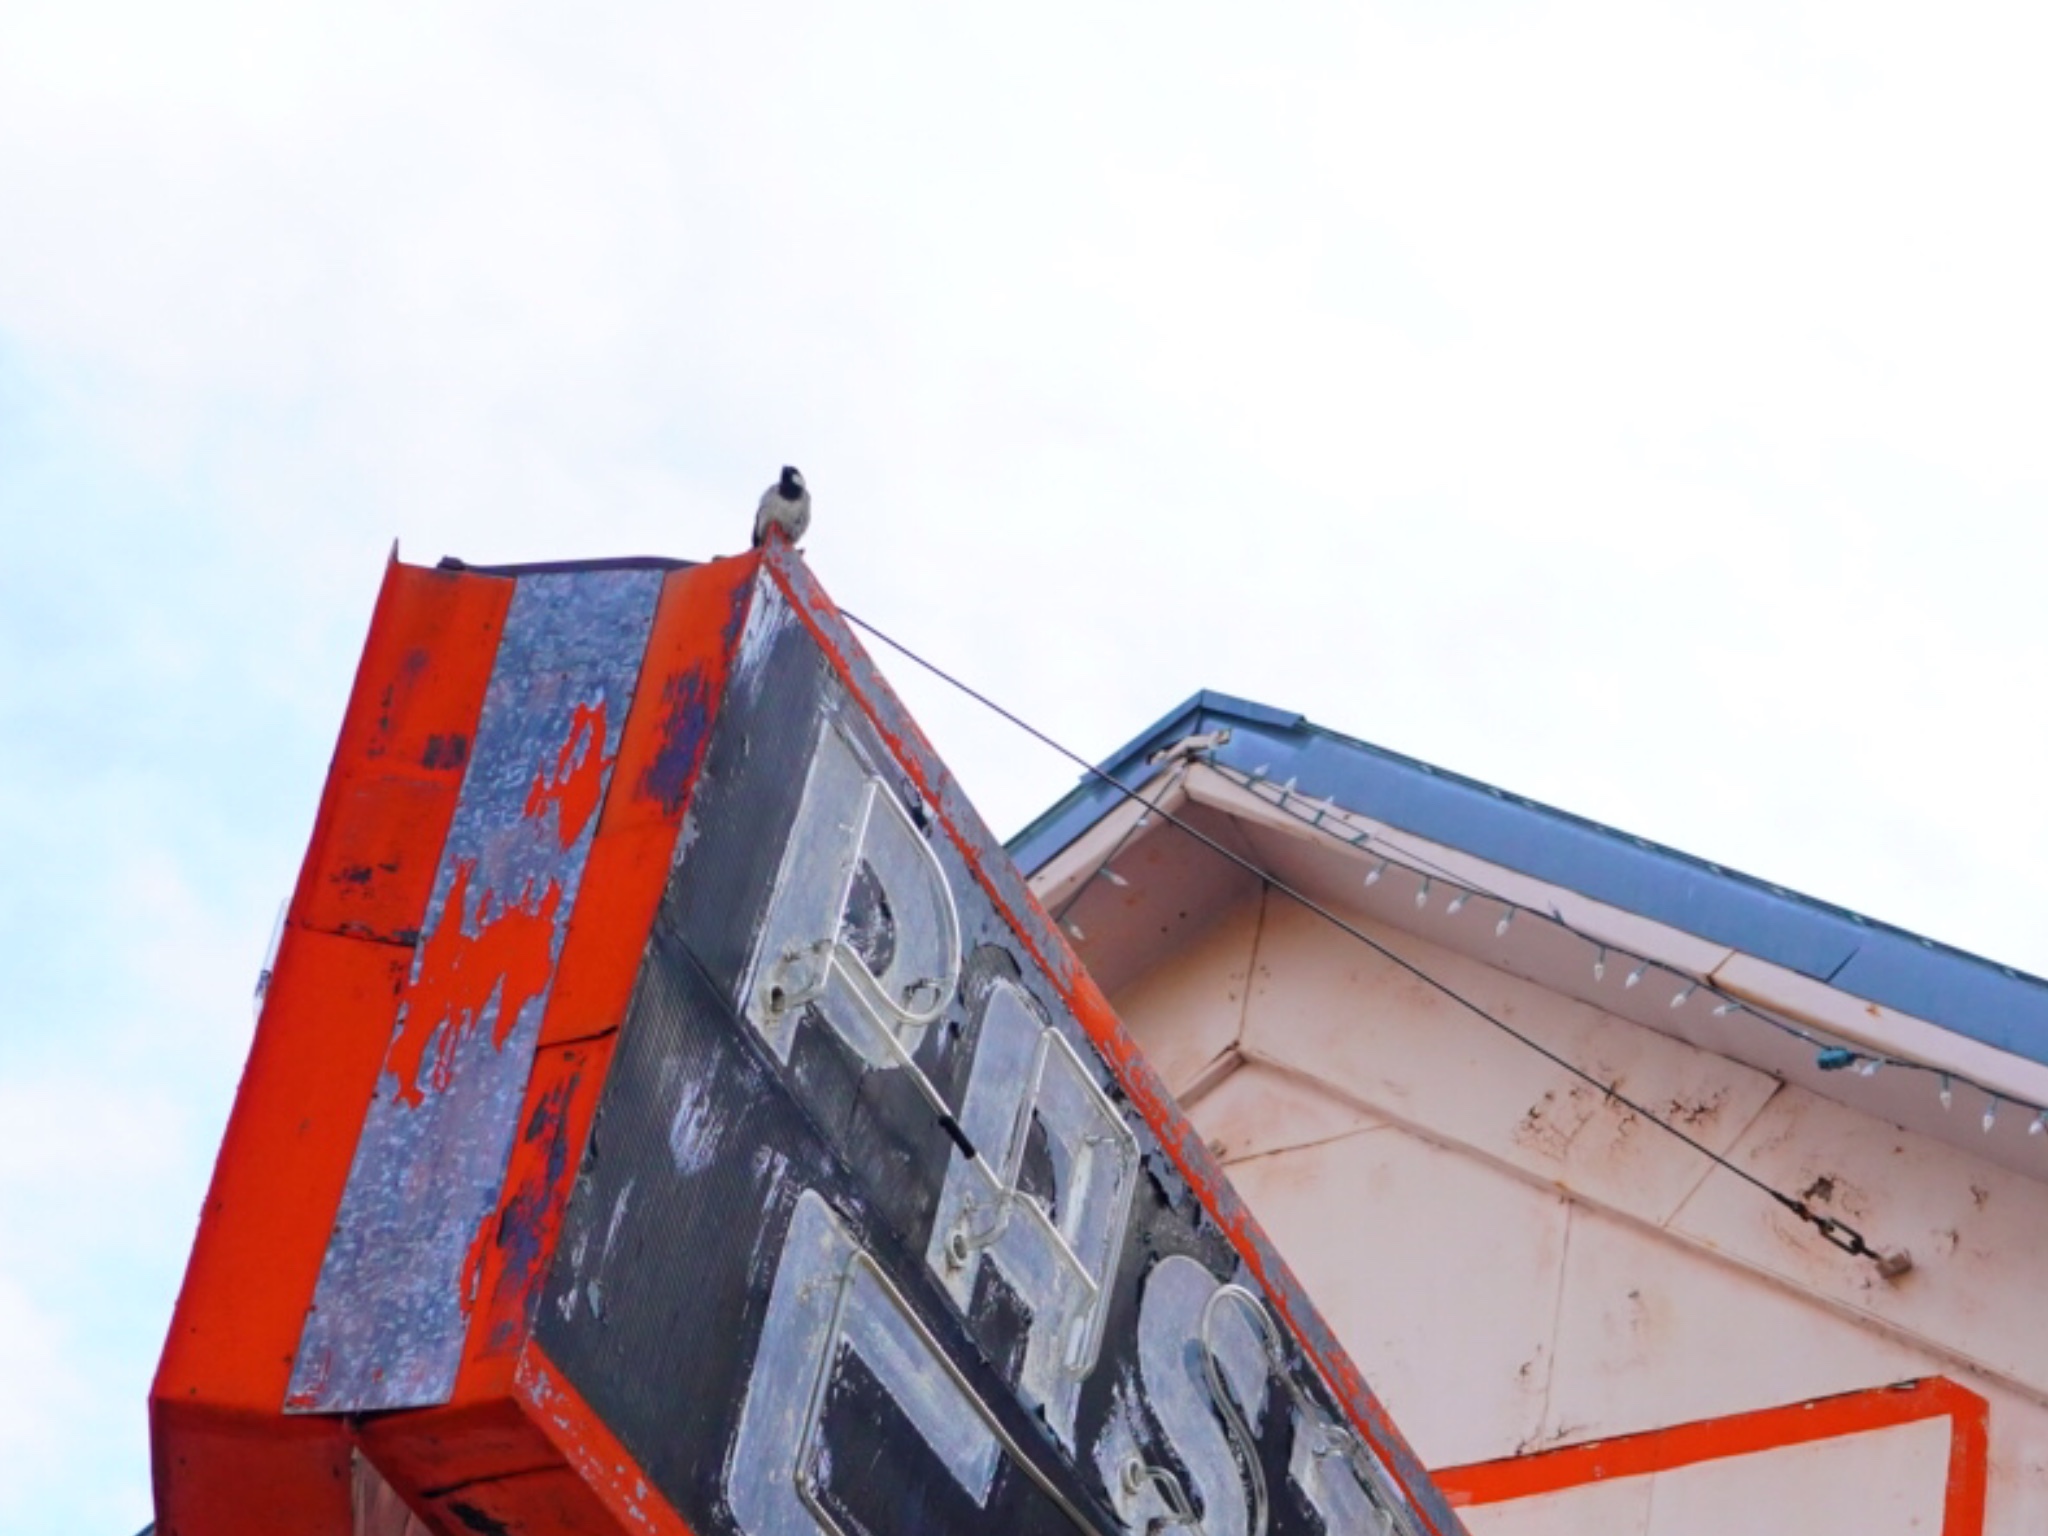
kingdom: Animalia
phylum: Chordata
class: Aves
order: Passeriformes
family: Passeridae
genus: Passer
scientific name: Passer domesticus
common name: House sparrow
